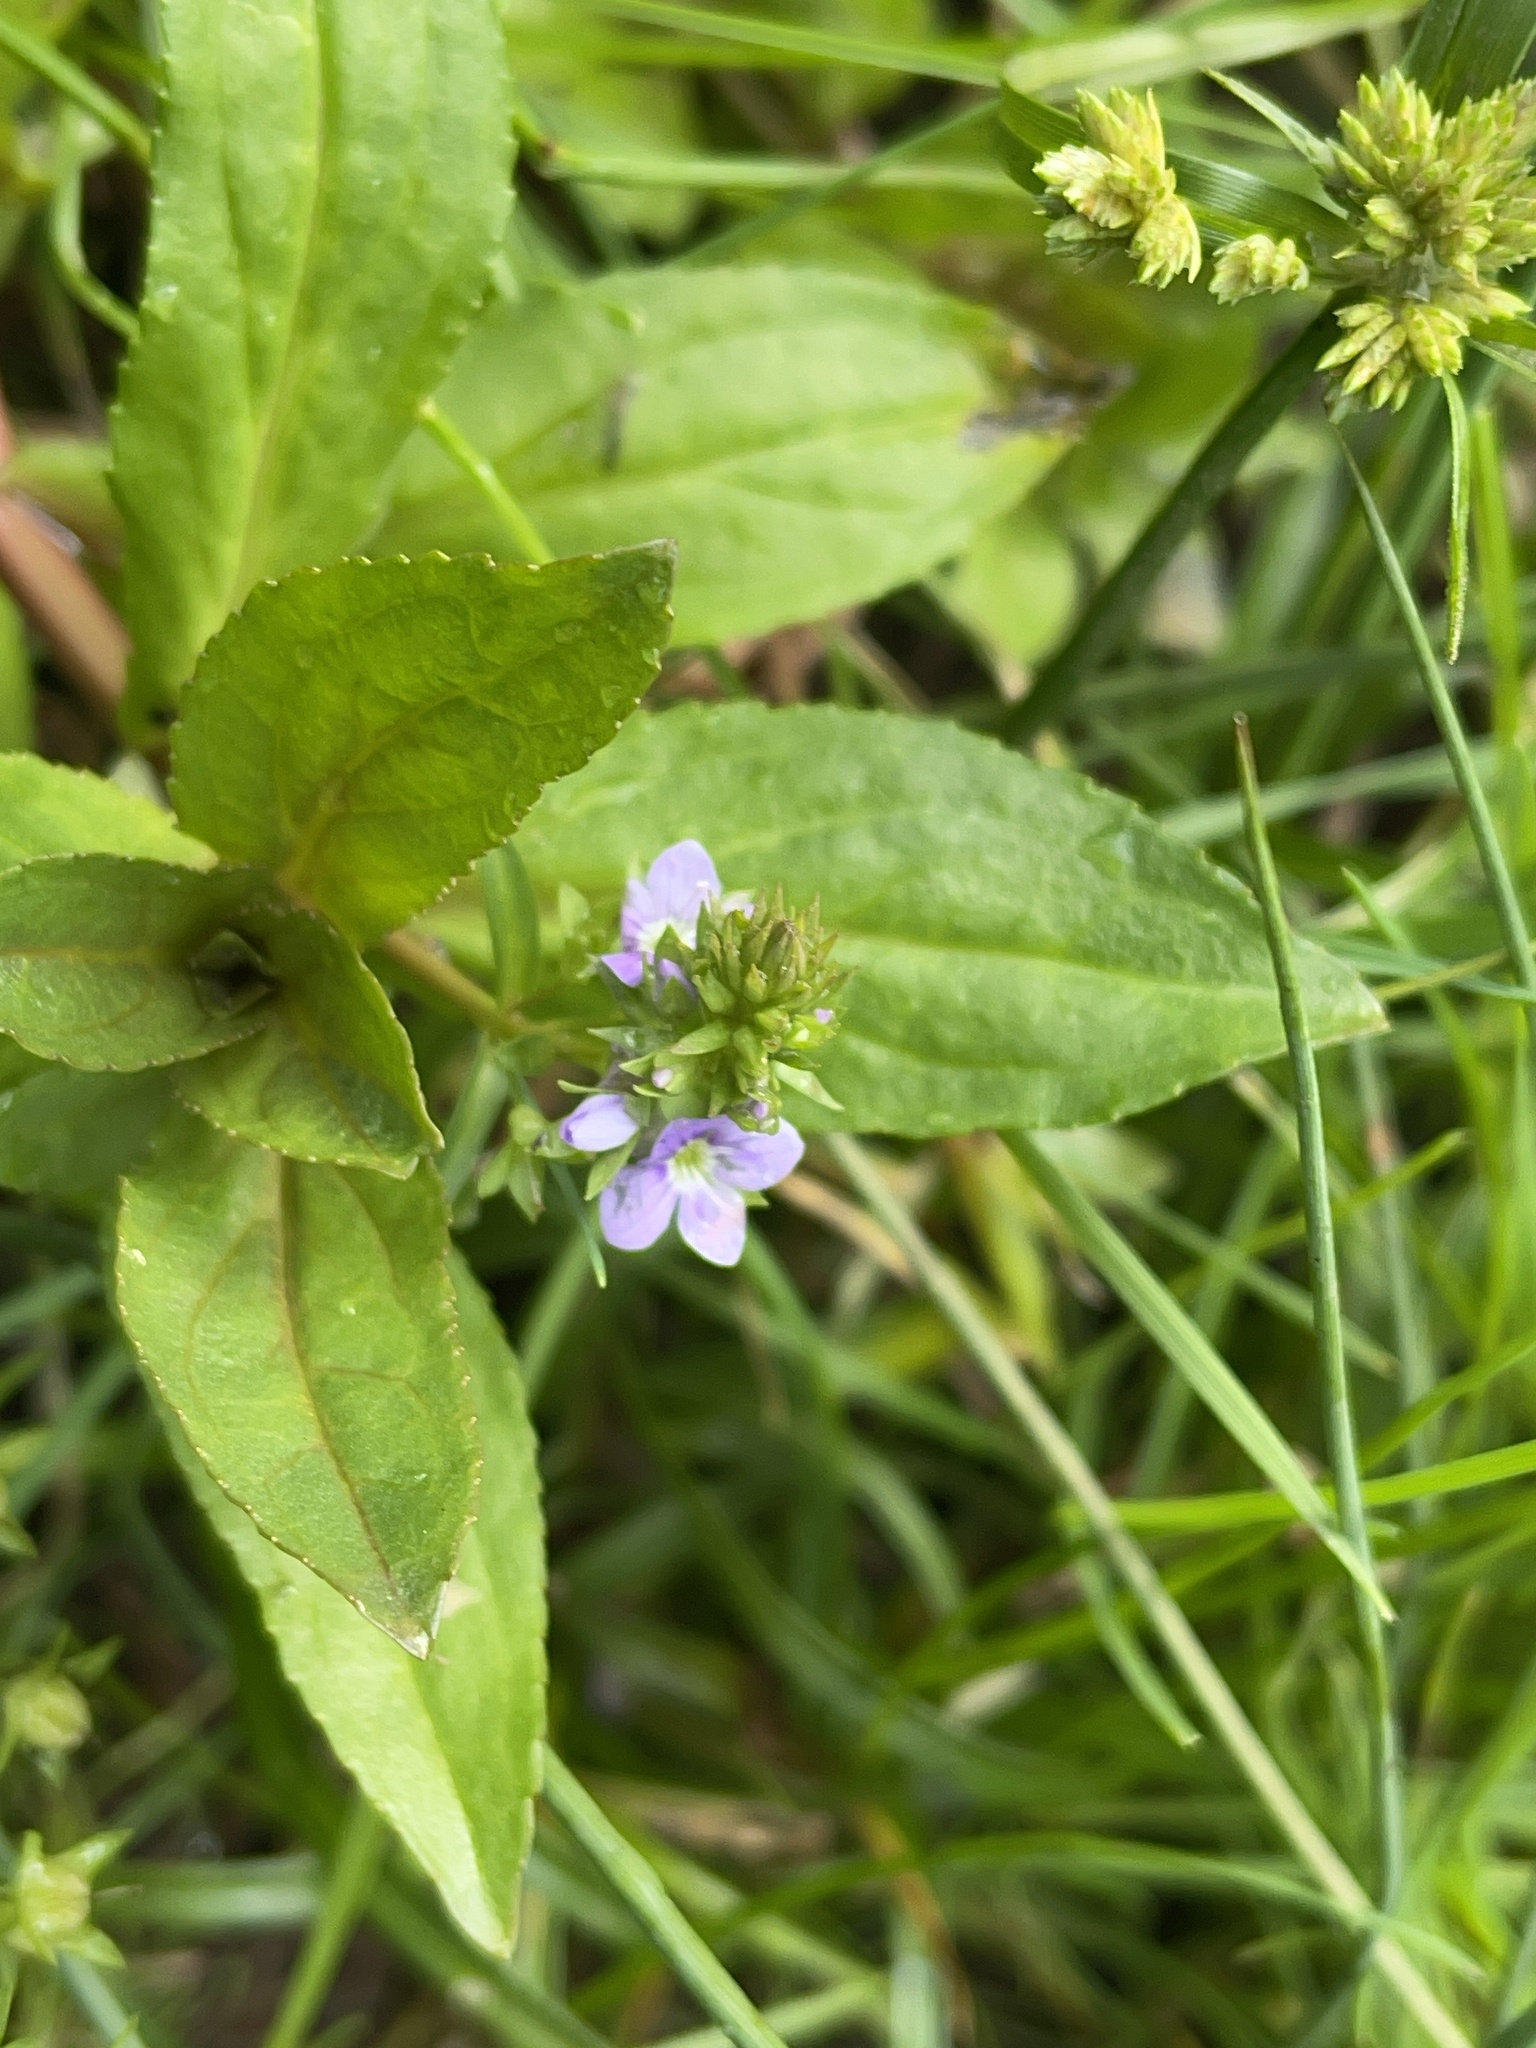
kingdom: Plantae
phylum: Tracheophyta
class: Magnoliopsida
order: Lamiales
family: Plantaginaceae
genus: Veronica
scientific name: Veronica anagallis-aquatica
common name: Water speedwell
